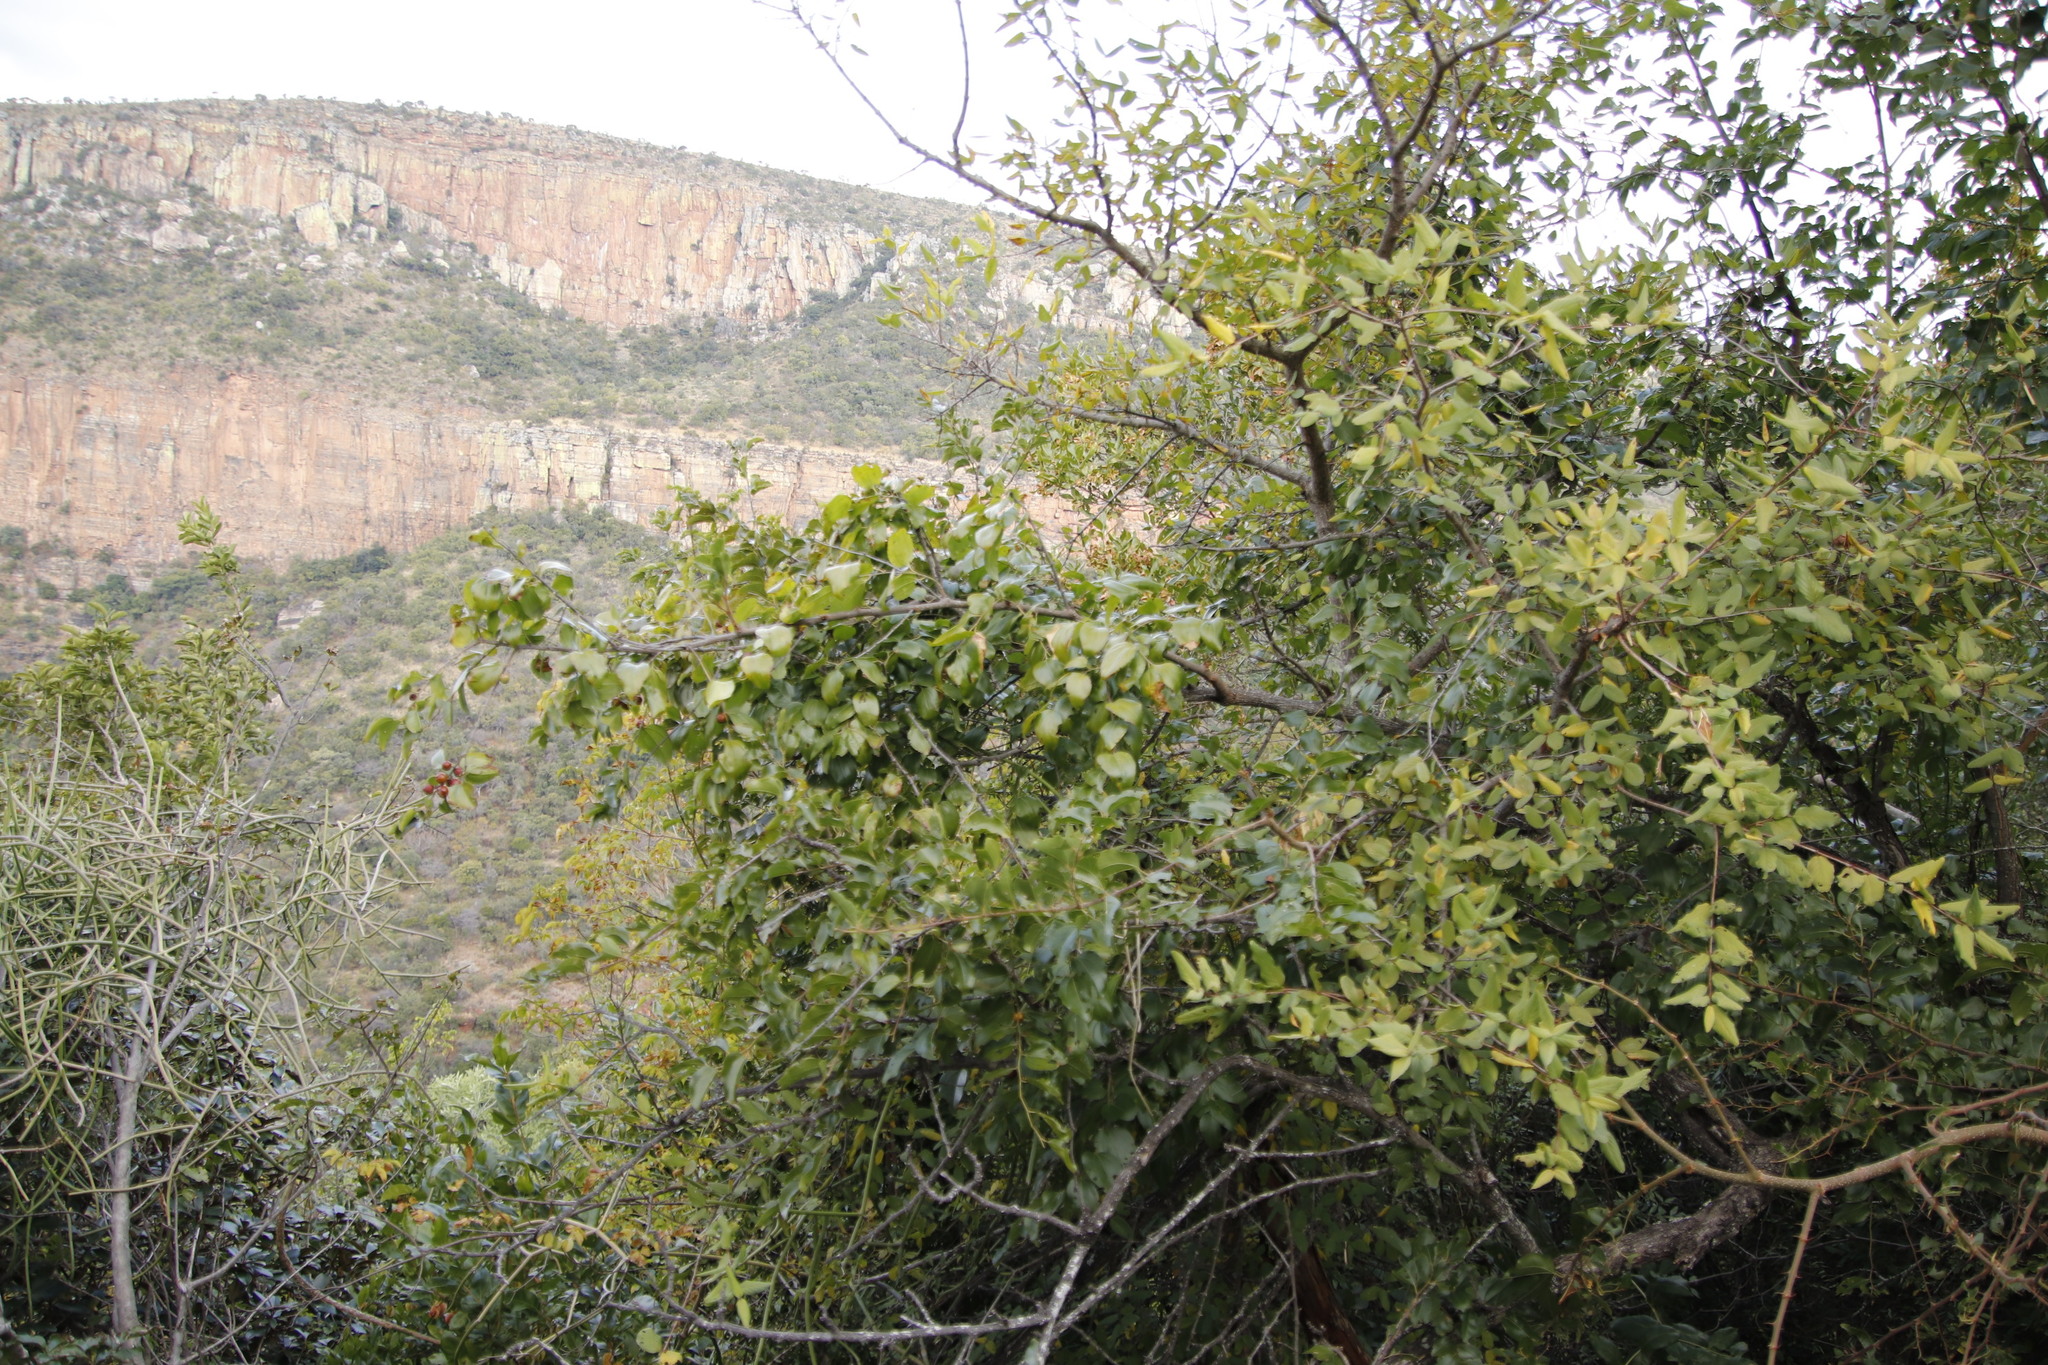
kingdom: Plantae
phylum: Tracheophyta
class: Magnoliopsida
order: Rosales
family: Rhamnaceae
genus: Ziziphus
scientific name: Ziziphus mucronata
